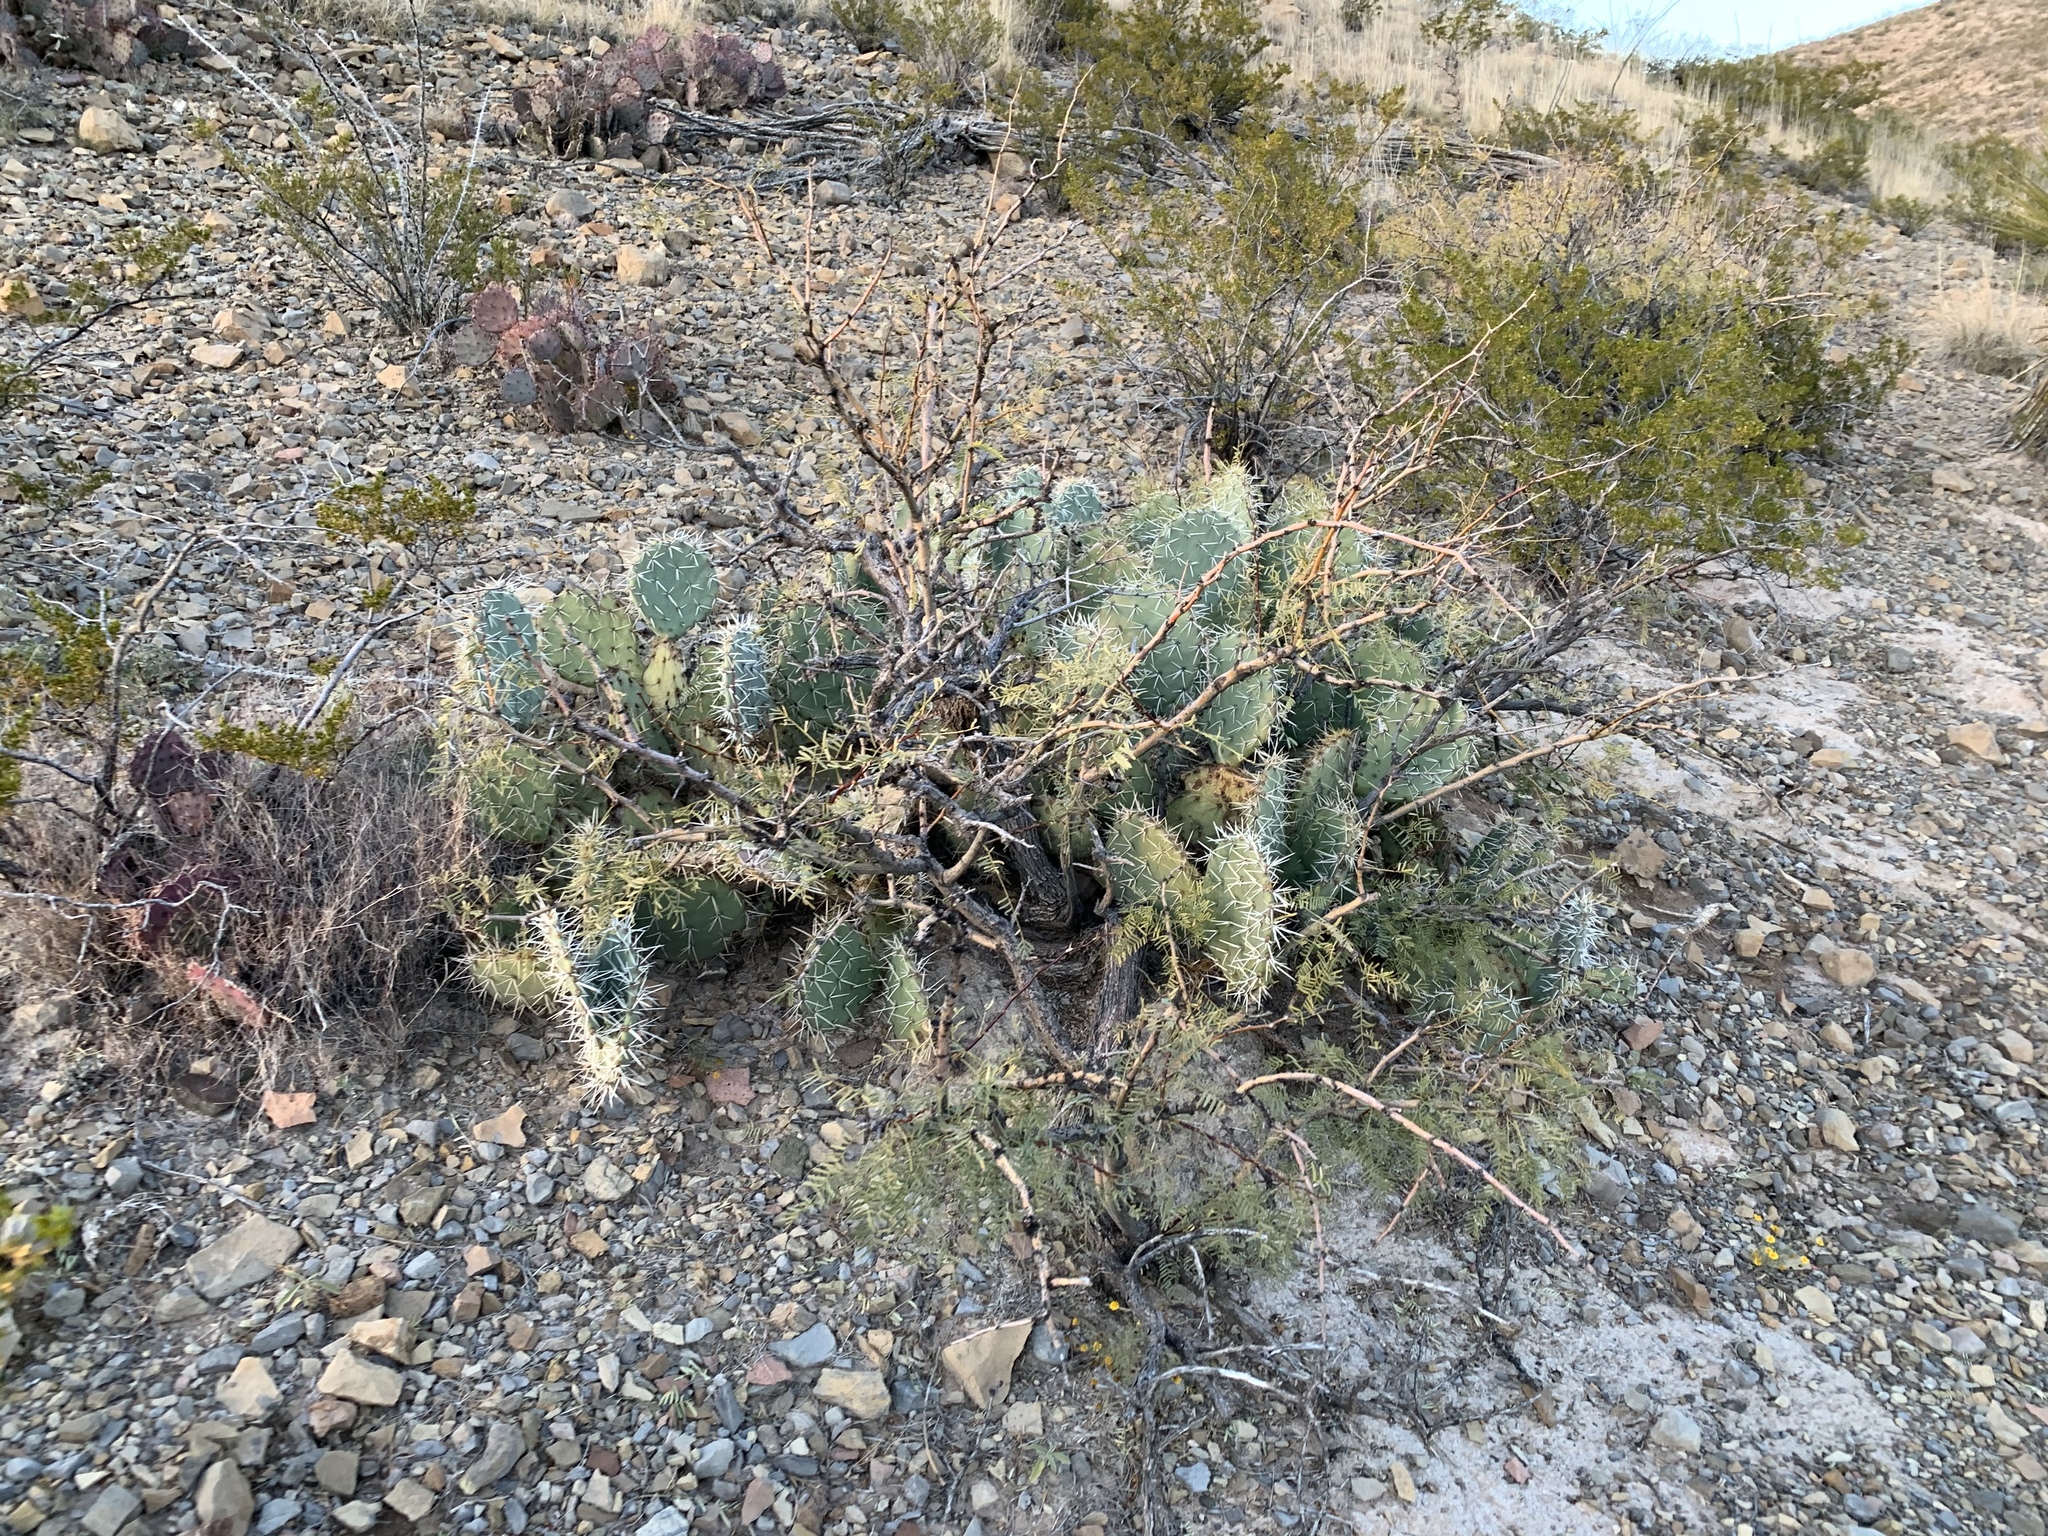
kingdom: Plantae
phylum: Tracheophyta
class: Magnoliopsida
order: Caryophyllales
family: Cactaceae
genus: Opuntia
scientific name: Opuntia phaeacantha
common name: New mexico prickly-pear
